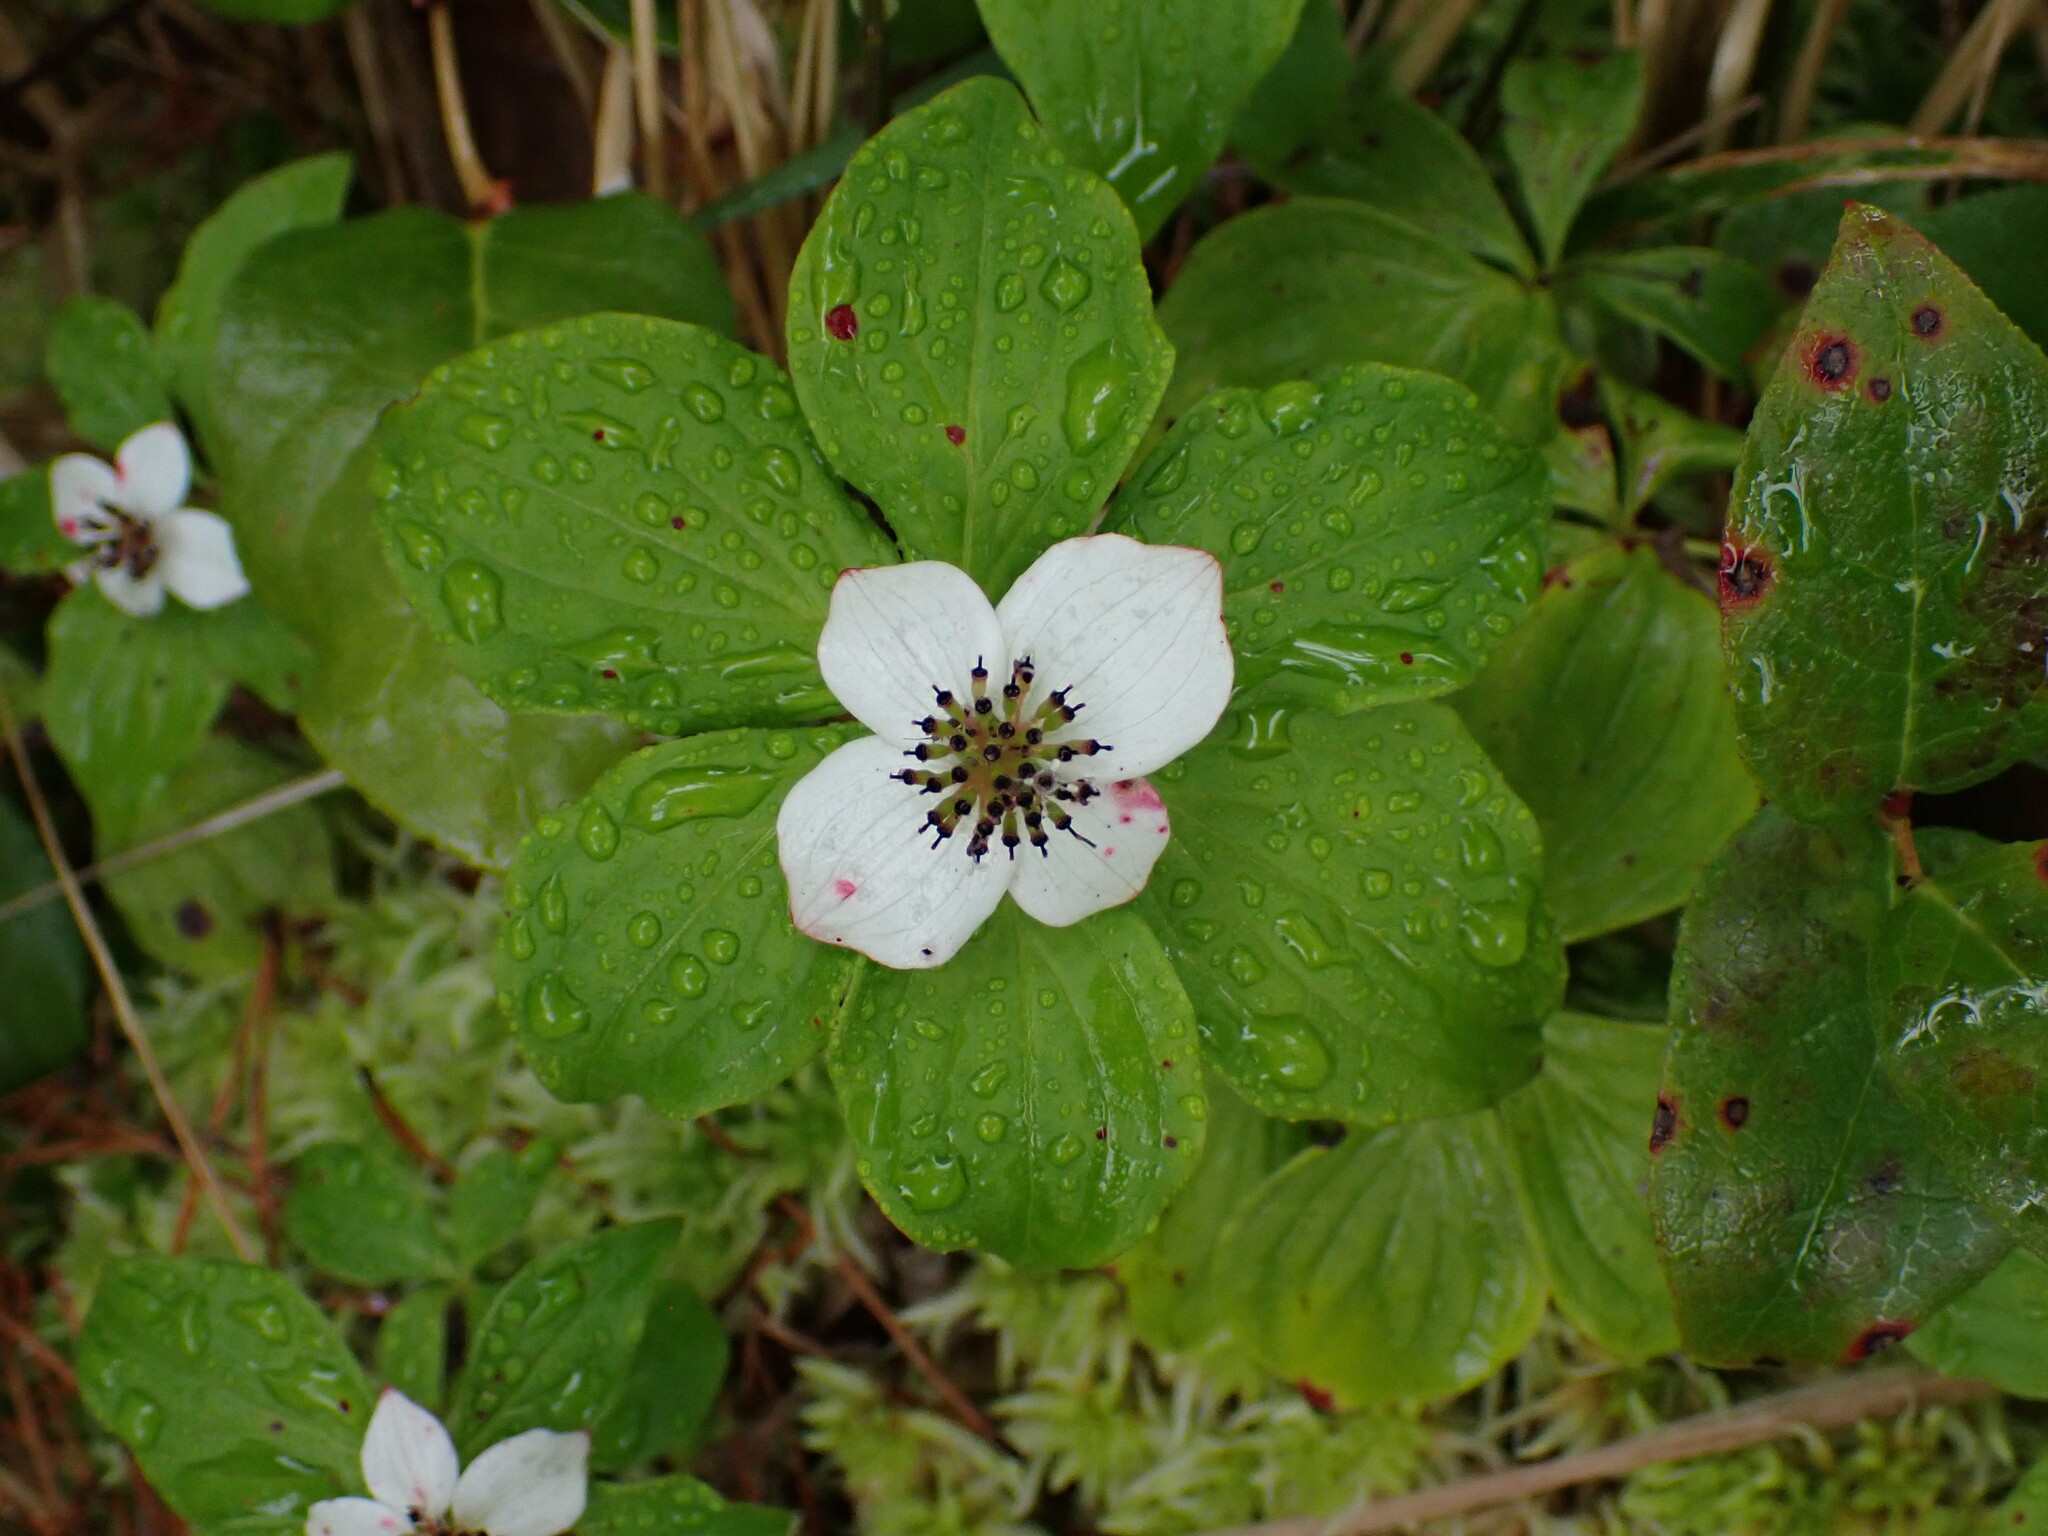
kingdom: Plantae
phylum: Tracheophyta
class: Magnoliopsida
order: Cornales
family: Cornaceae
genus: Cornus
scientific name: Cornus unalaschkensis
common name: Alaska bunchberry
